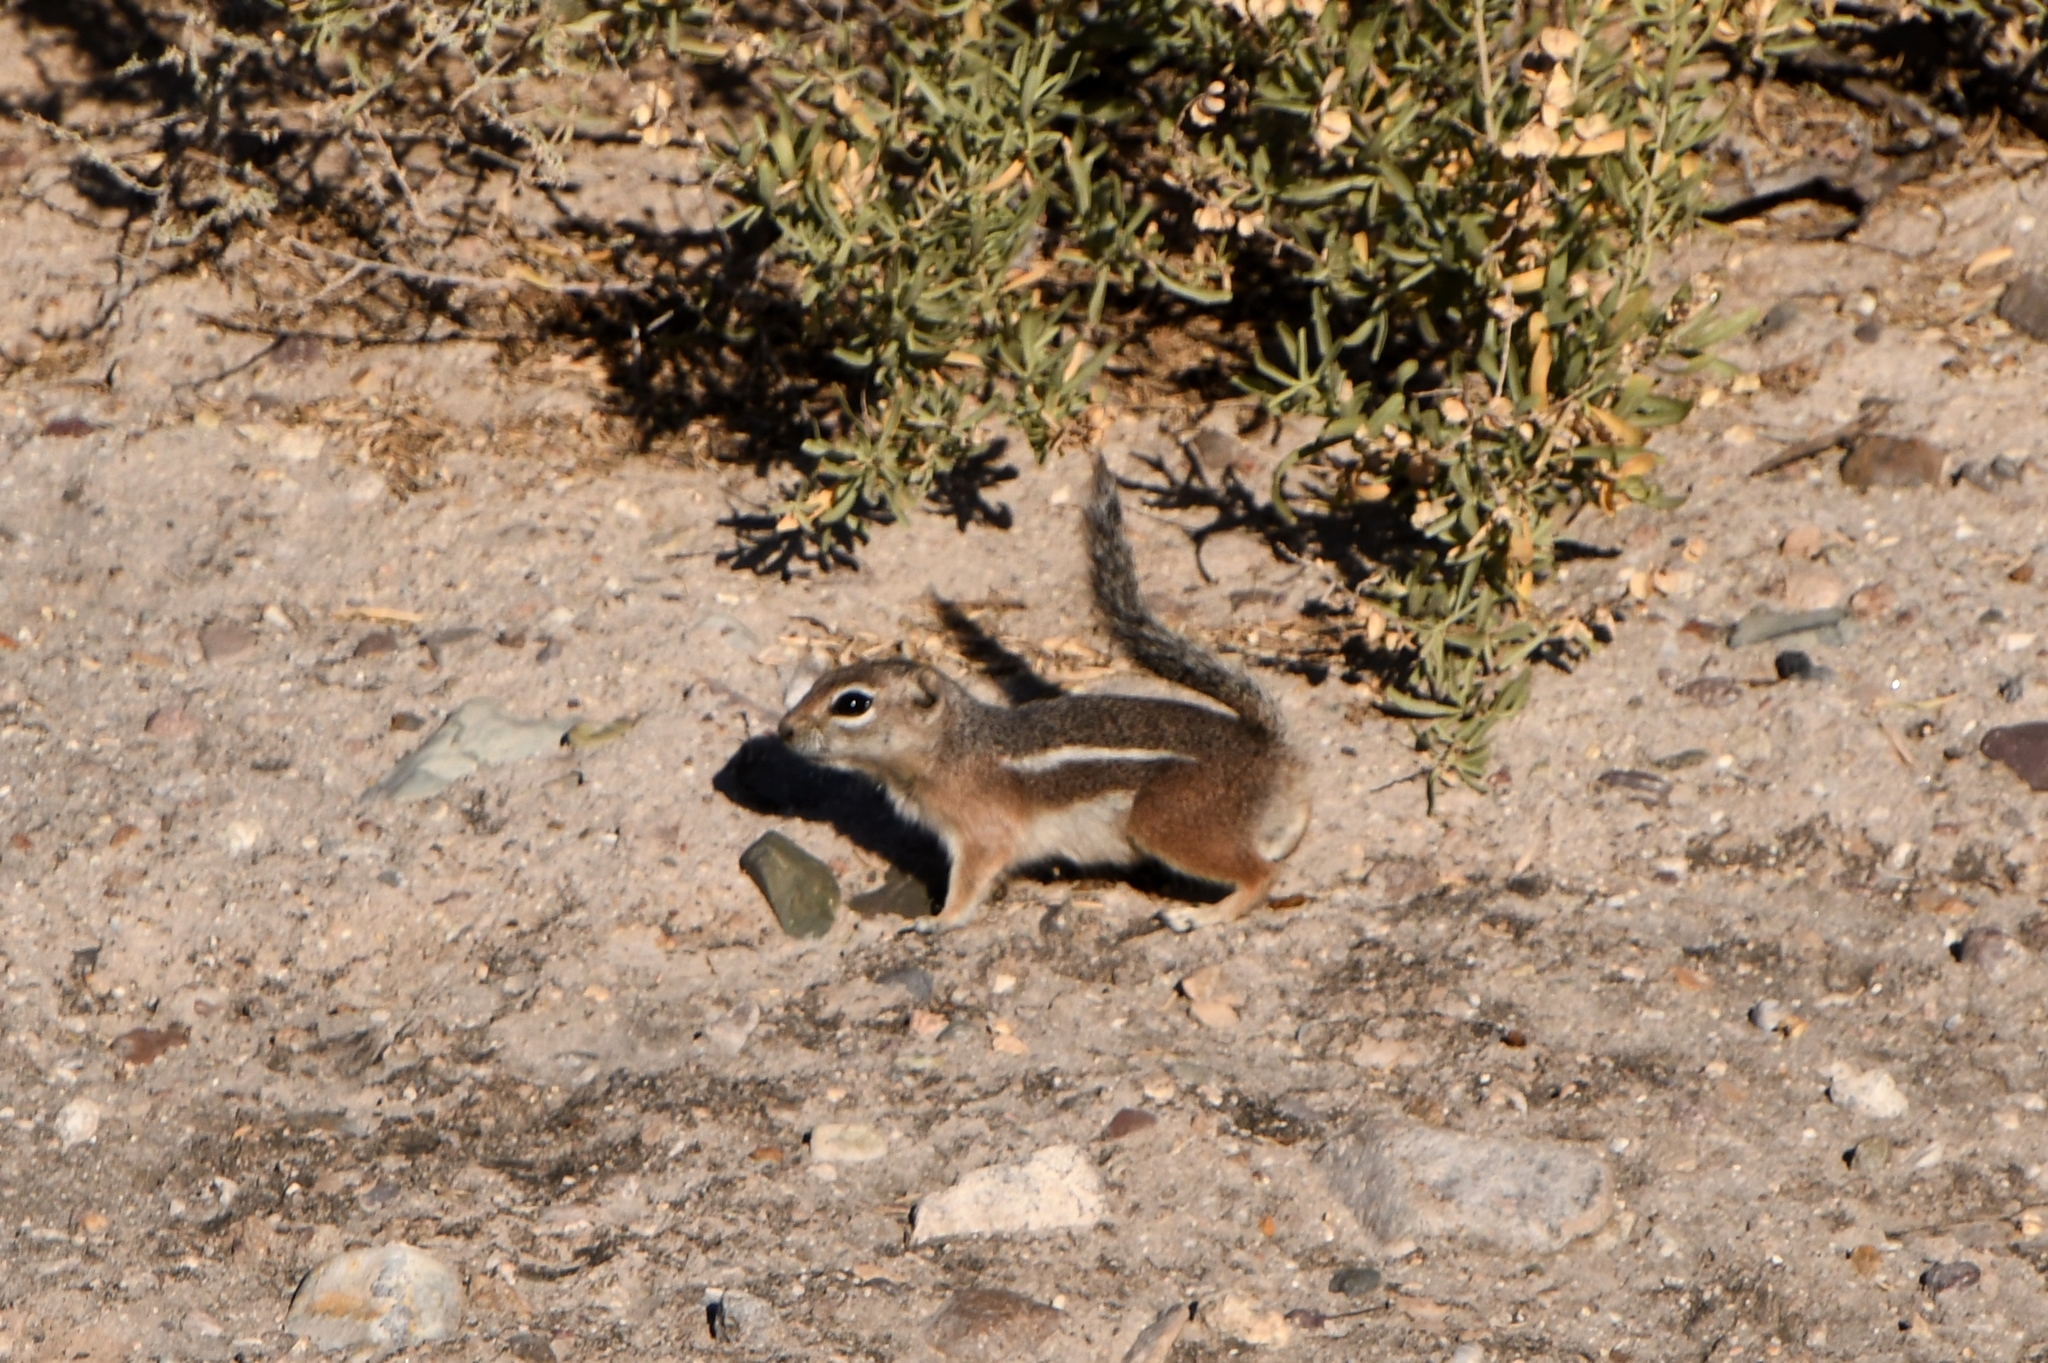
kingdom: Animalia
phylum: Chordata
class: Mammalia
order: Rodentia
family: Sciuridae
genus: Ammospermophilus
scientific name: Ammospermophilus harrisii
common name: Harris's antelope squirrel
